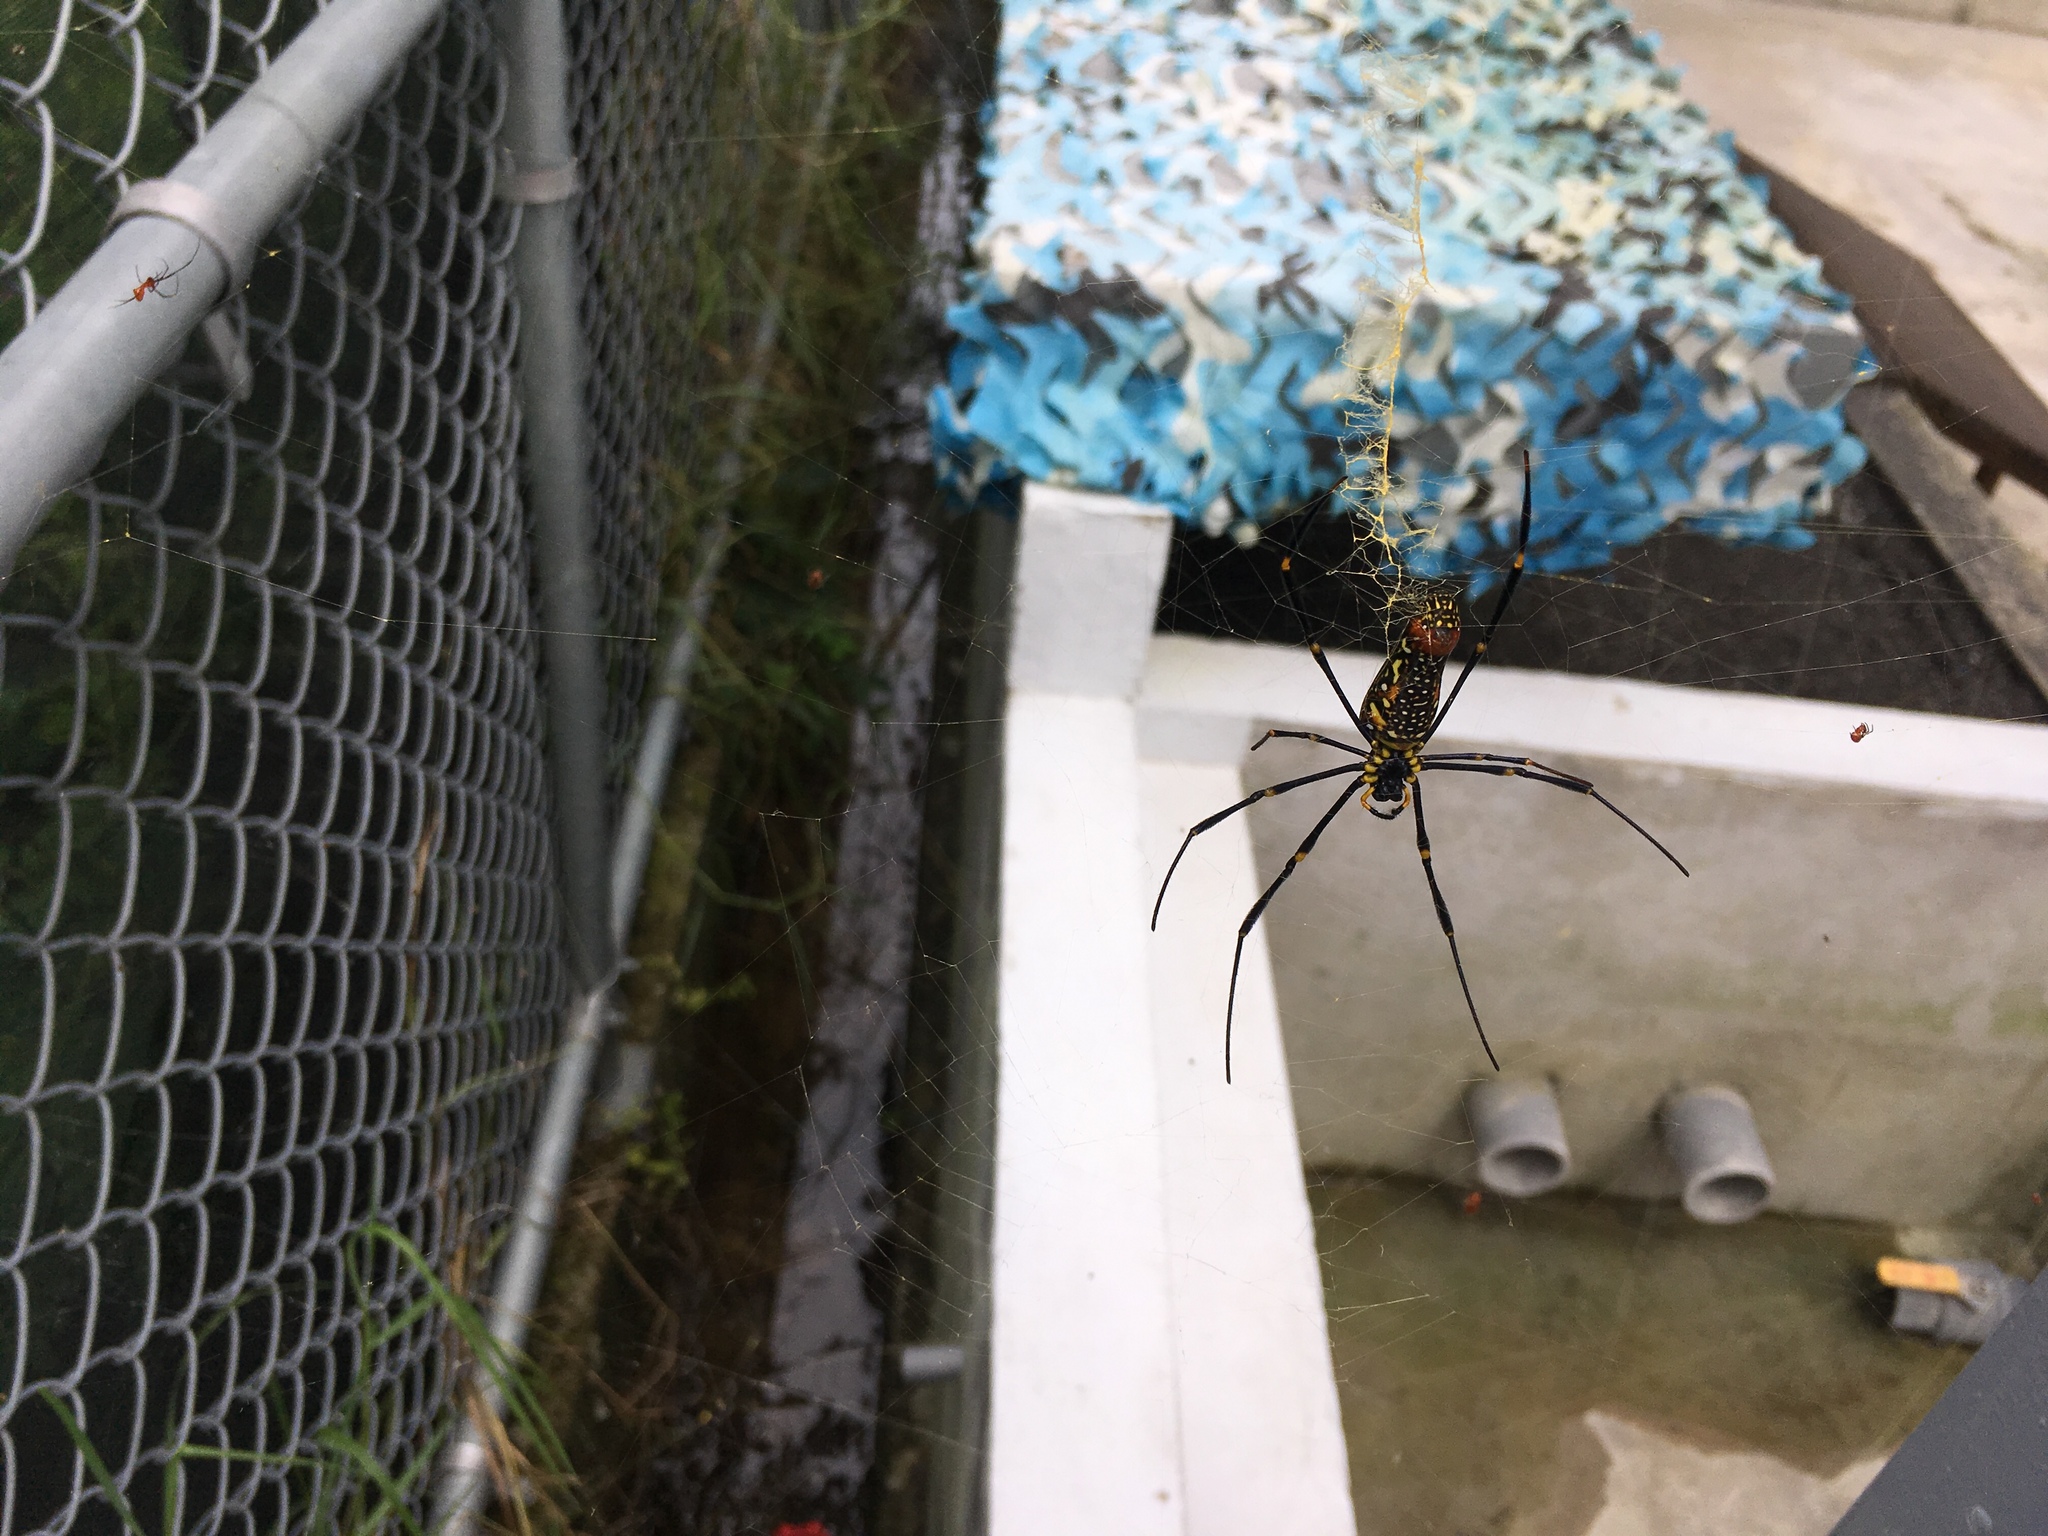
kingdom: Animalia
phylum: Arthropoda
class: Arachnida
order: Araneae
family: Araneidae
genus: Nephila
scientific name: Nephila pilipes
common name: Giant golden orb weaver
